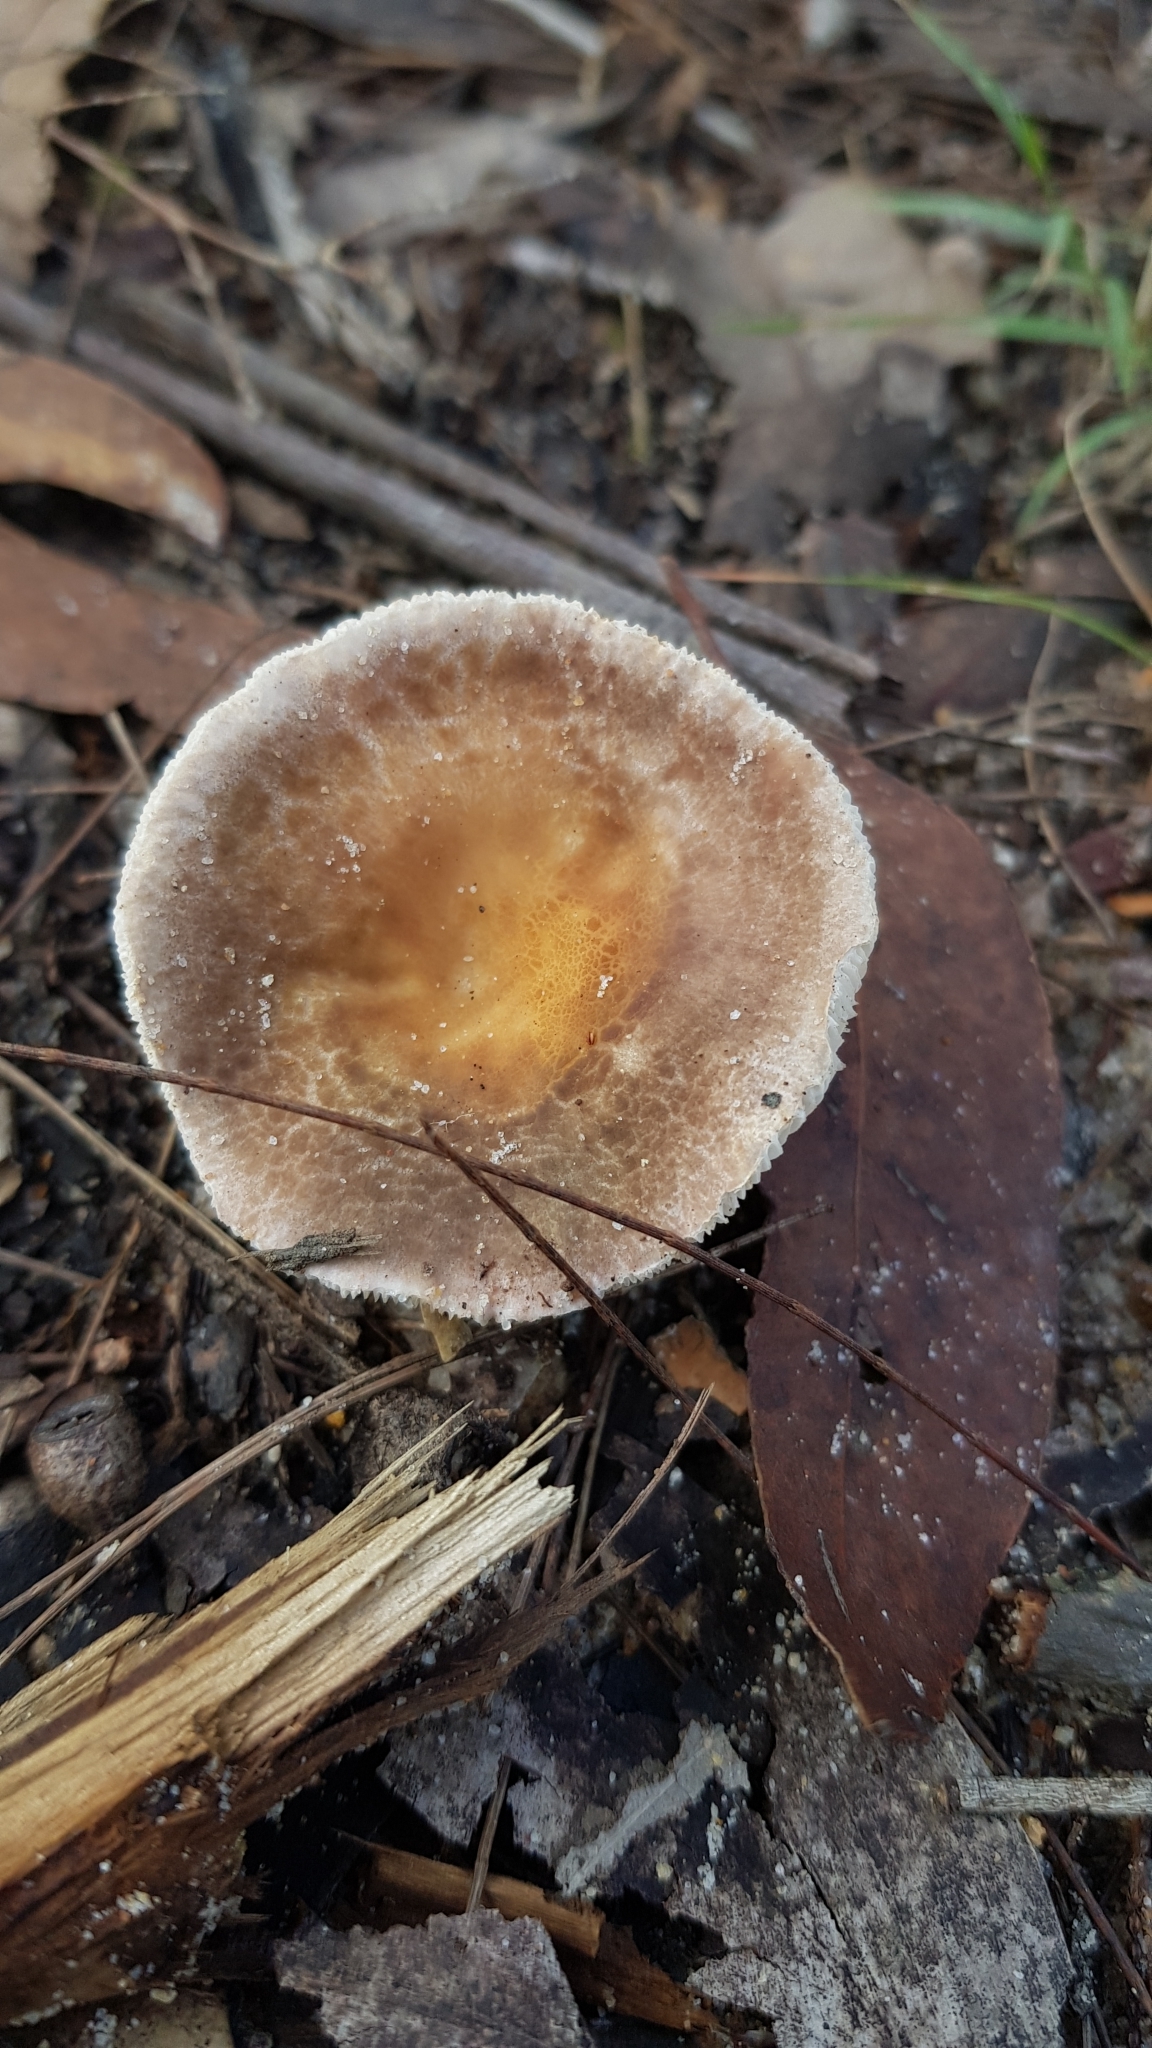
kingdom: Fungi
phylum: Basidiomycota
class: Agaricomycetes
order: Russulales
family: Russulaceae
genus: Russula
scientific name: Russula kalimna
